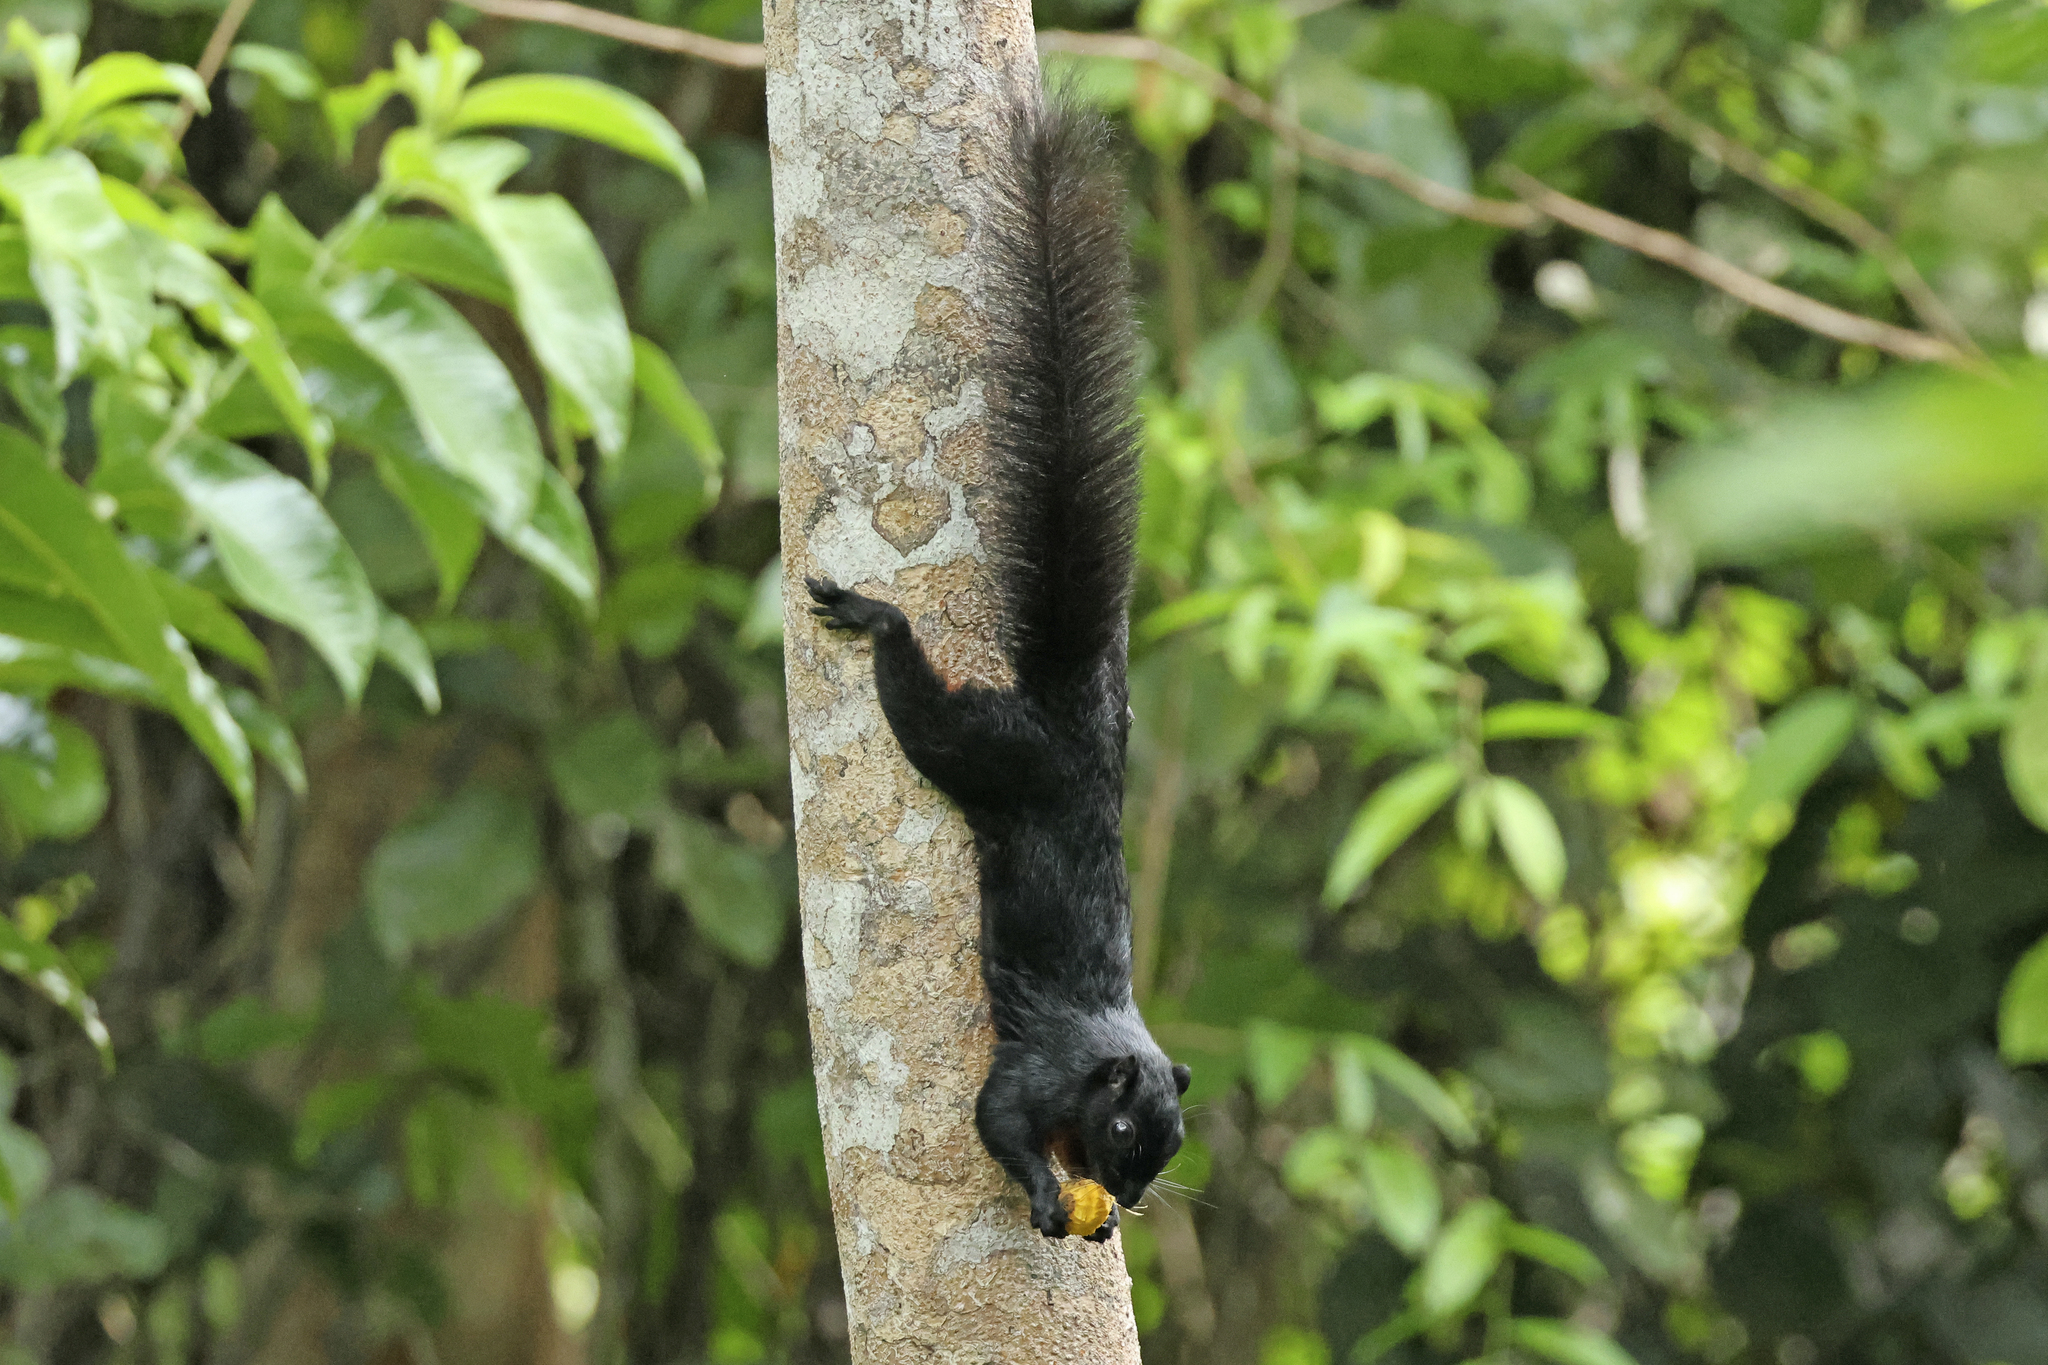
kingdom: Animalia
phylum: Chordata
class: Mammalia
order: Rodentia
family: Sciuridae
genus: Callosciurus
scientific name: Callosciurus prevostii
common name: Prevost's squirrel
